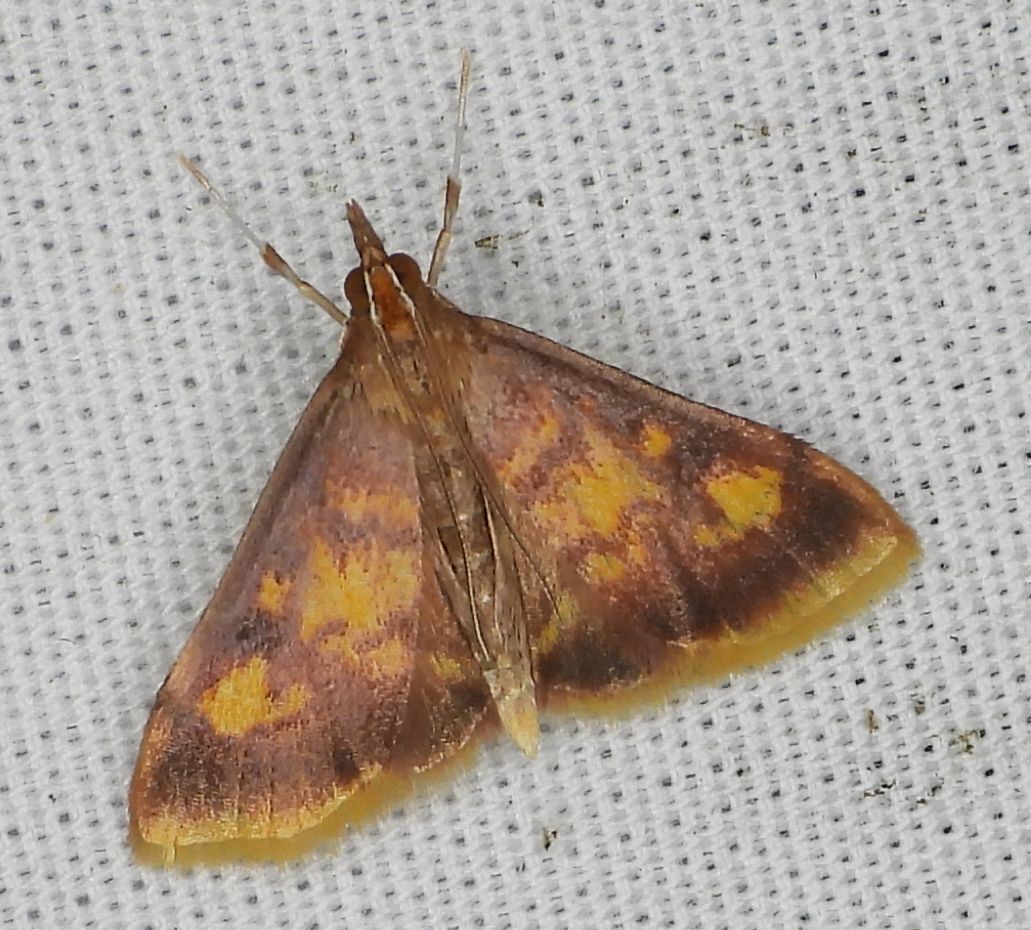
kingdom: Animalia
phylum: Arthropoda
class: Insecta
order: Lepidoptera
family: Crambidae
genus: Pyrausta
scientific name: Pyrausta acrionalis
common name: Mint-loving pyrausta moth
